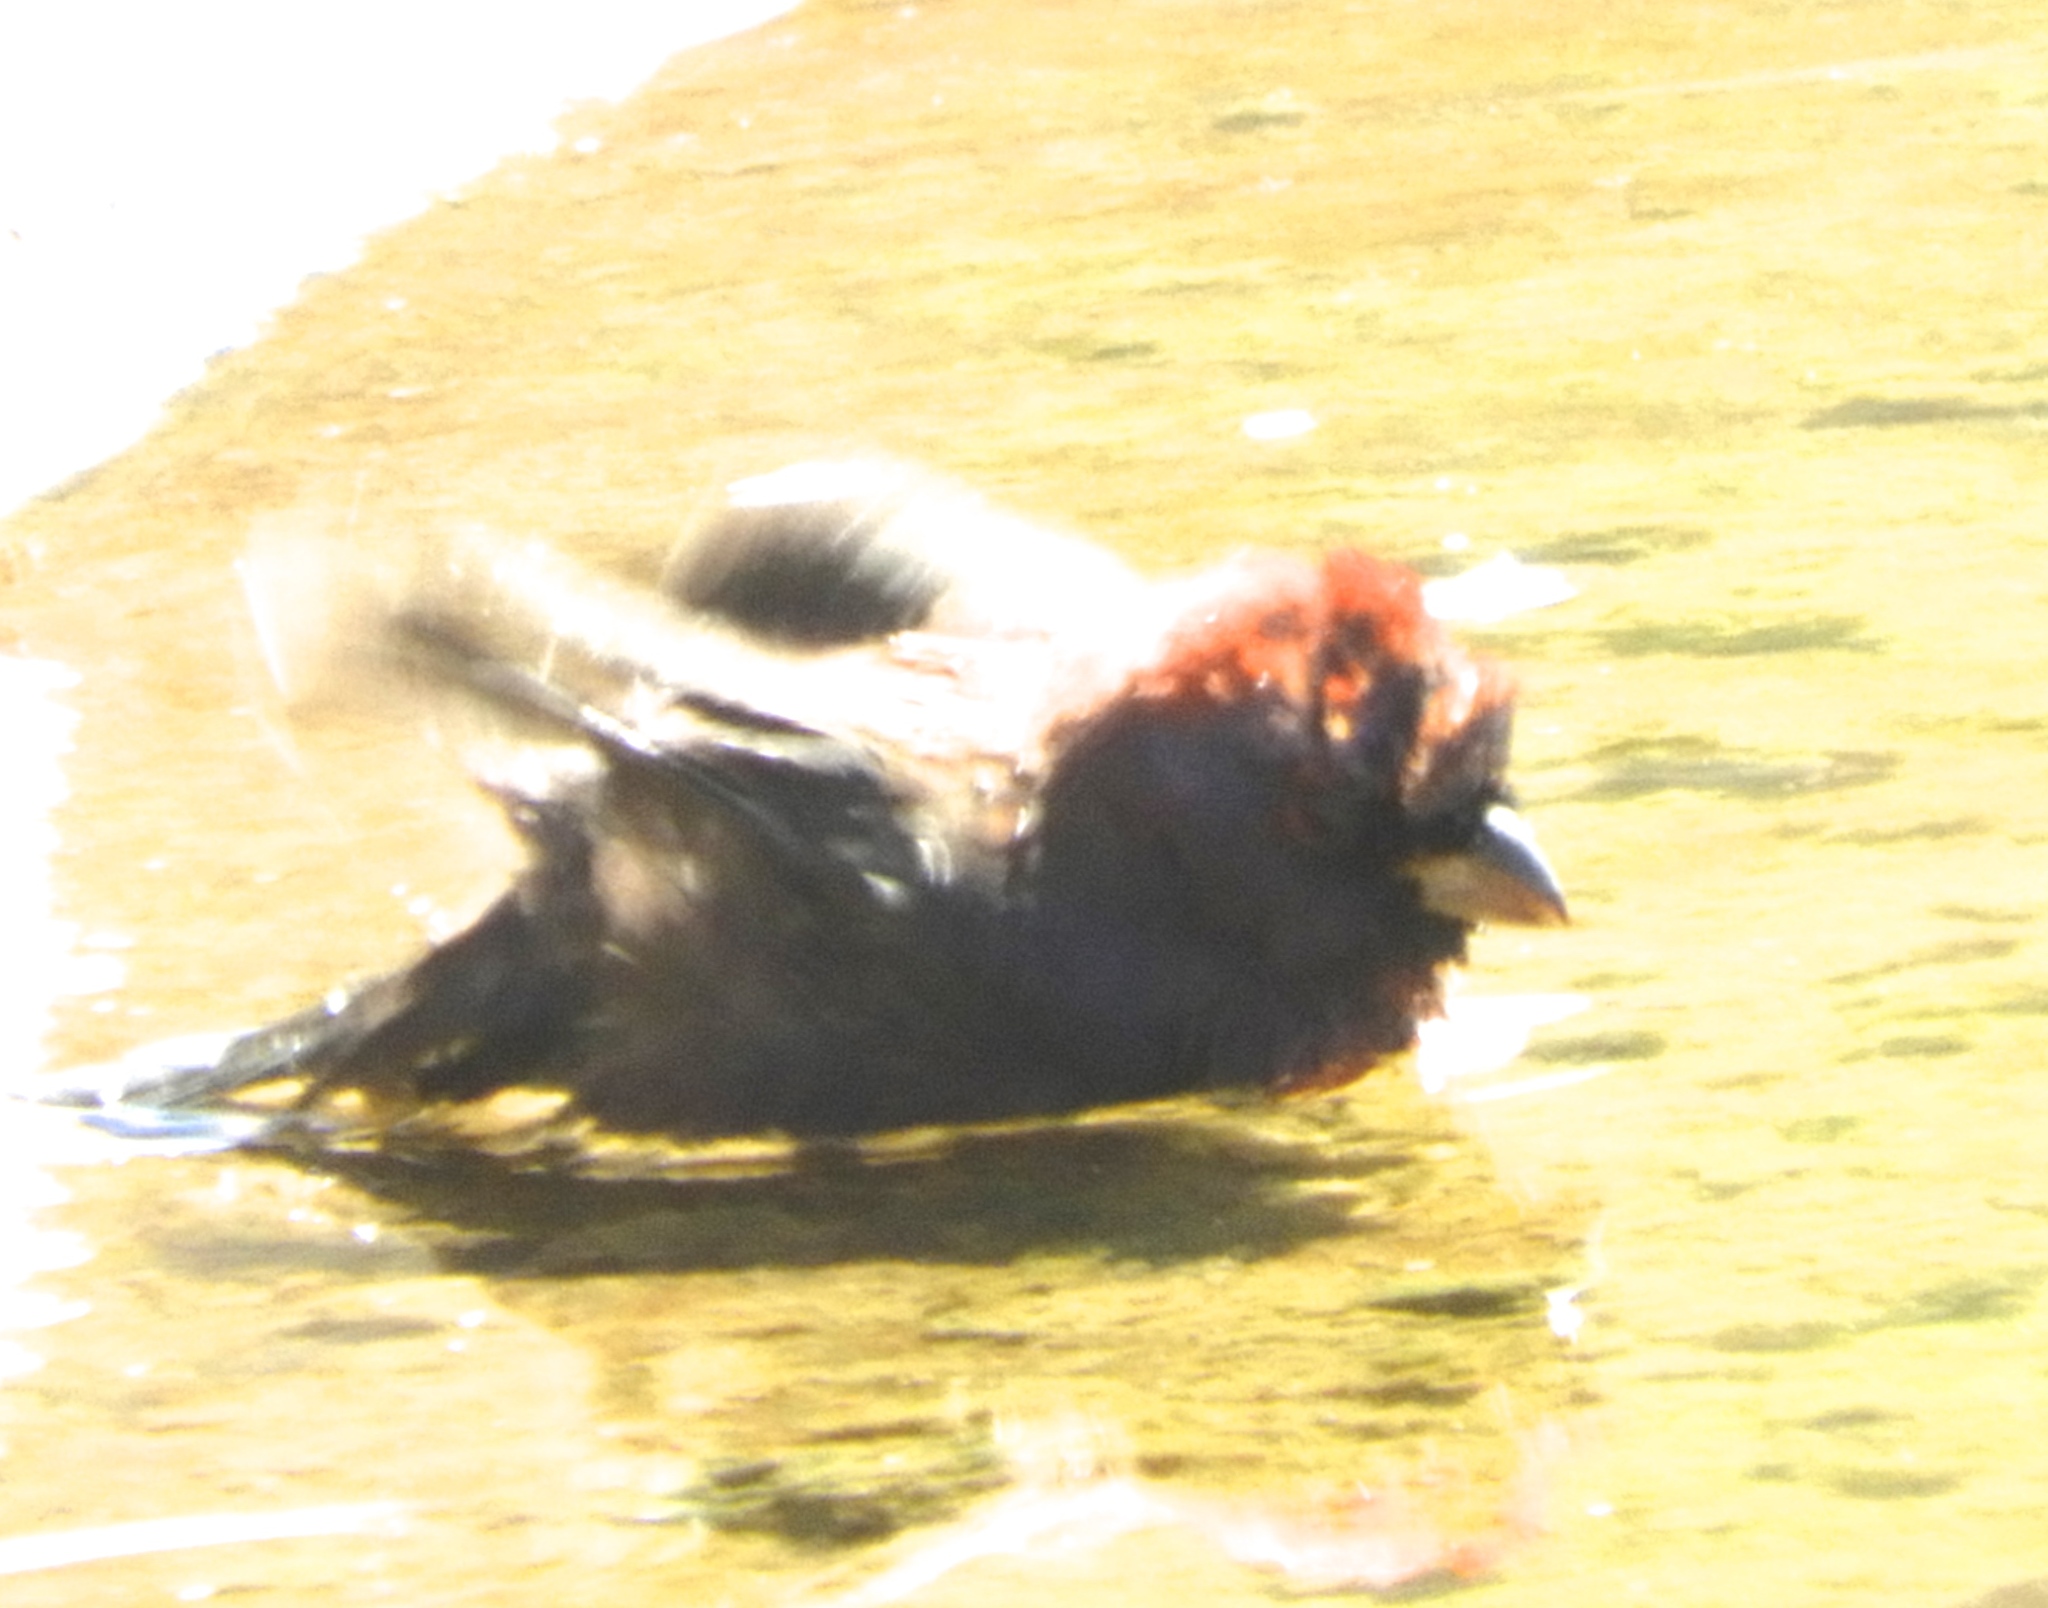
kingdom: Animalia
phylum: Chordata
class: Aves
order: Passeriformes
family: Cardinalidae
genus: Passerina
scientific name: Passerina versicolor
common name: Varied bunting
